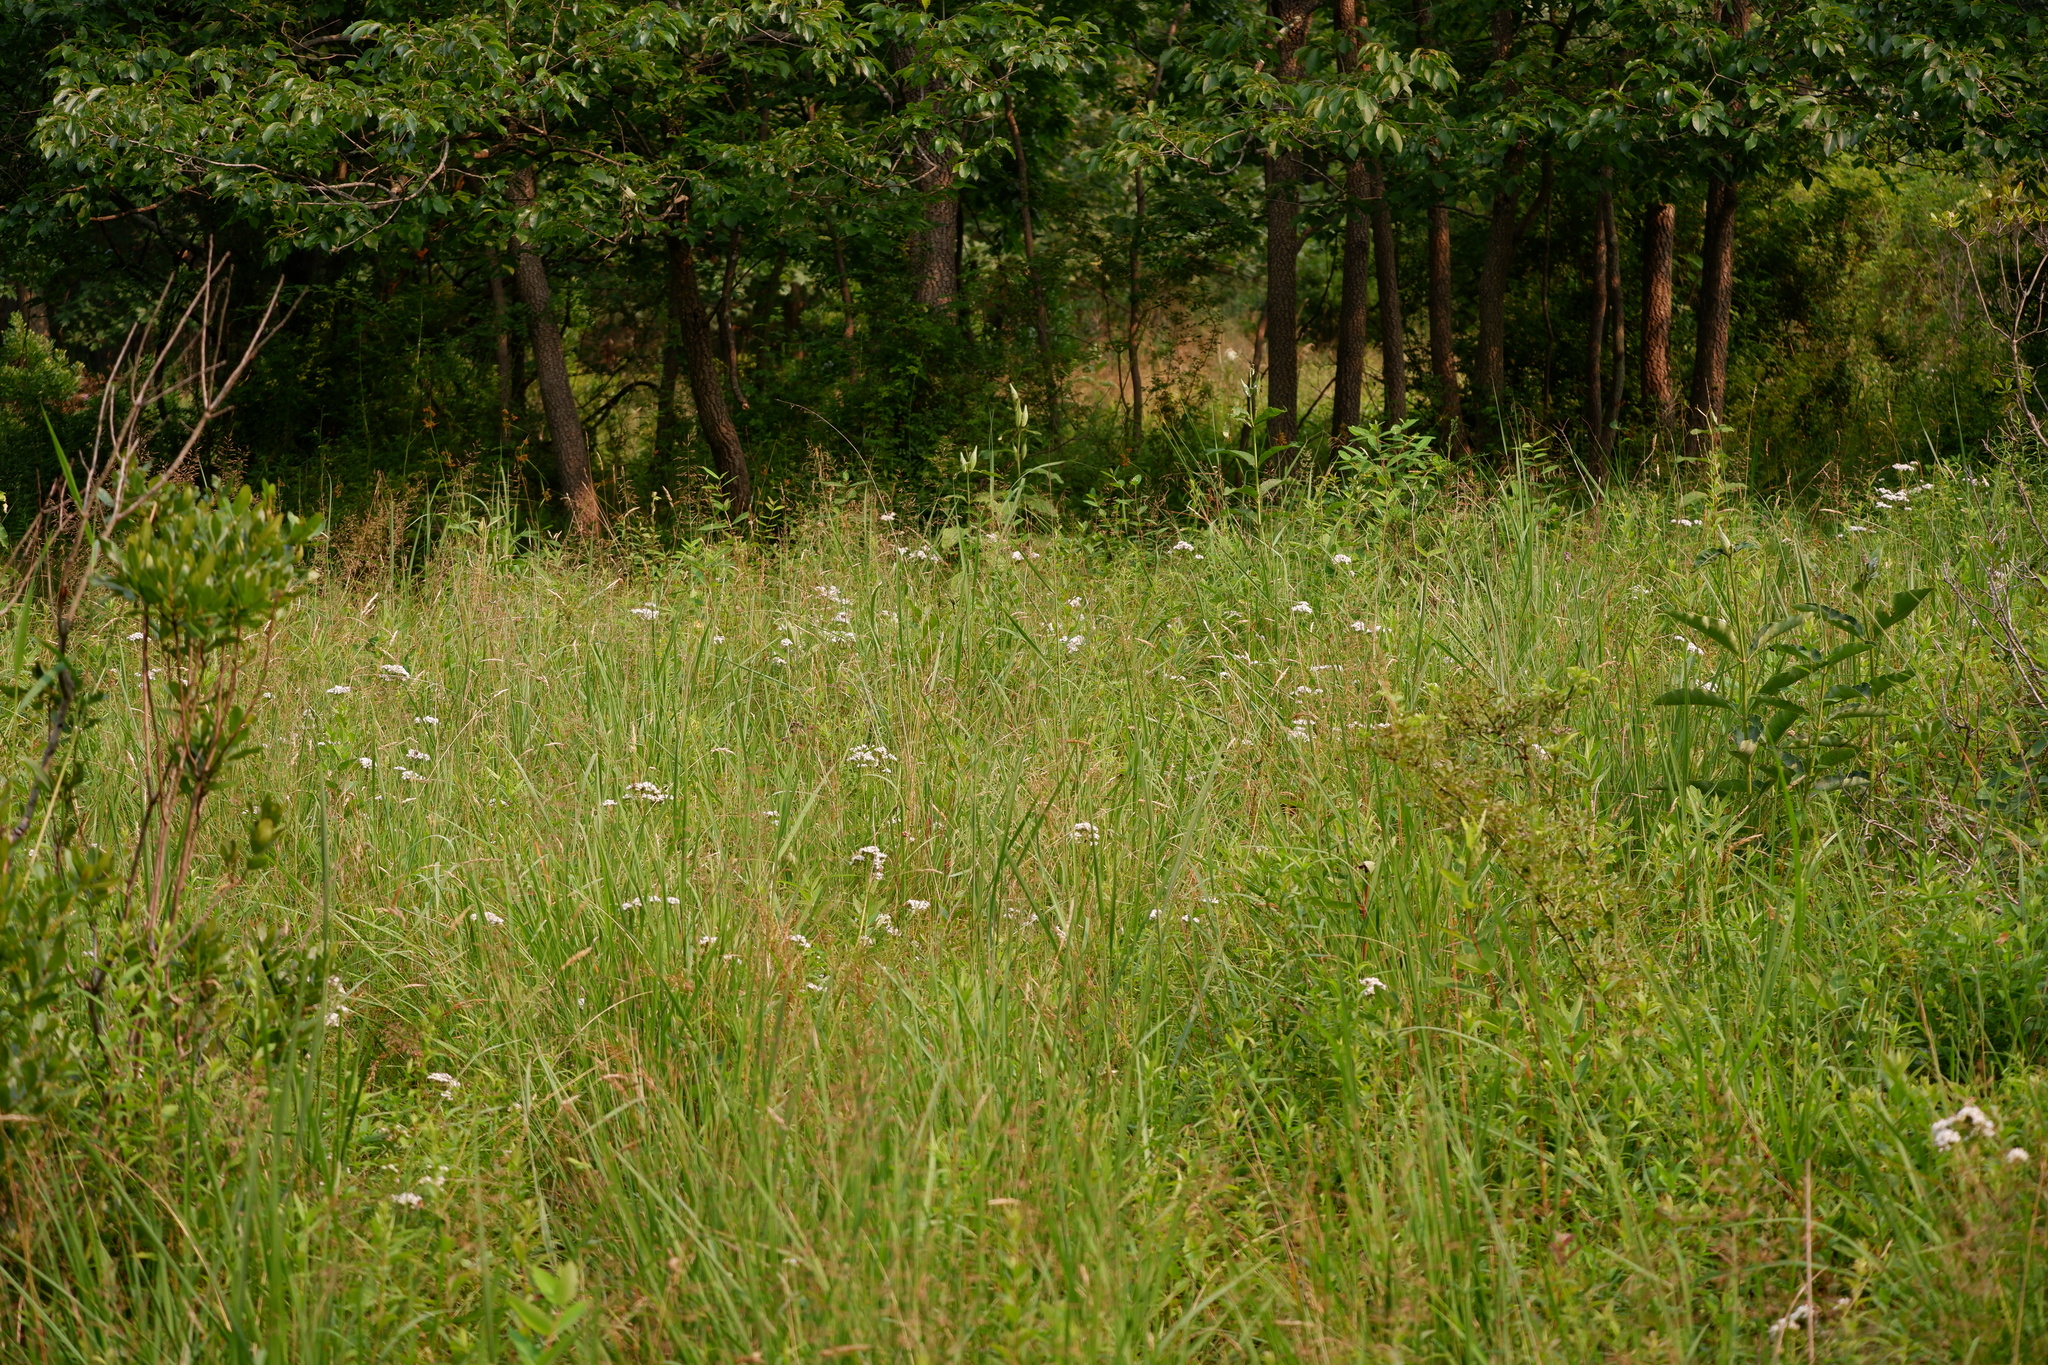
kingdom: Plantae
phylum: Tracheophyta
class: Magnoliopsida
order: Gentianales
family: Apocynaceae
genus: Asclepias
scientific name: Asclepias purpurascens
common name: Purple milkweed
